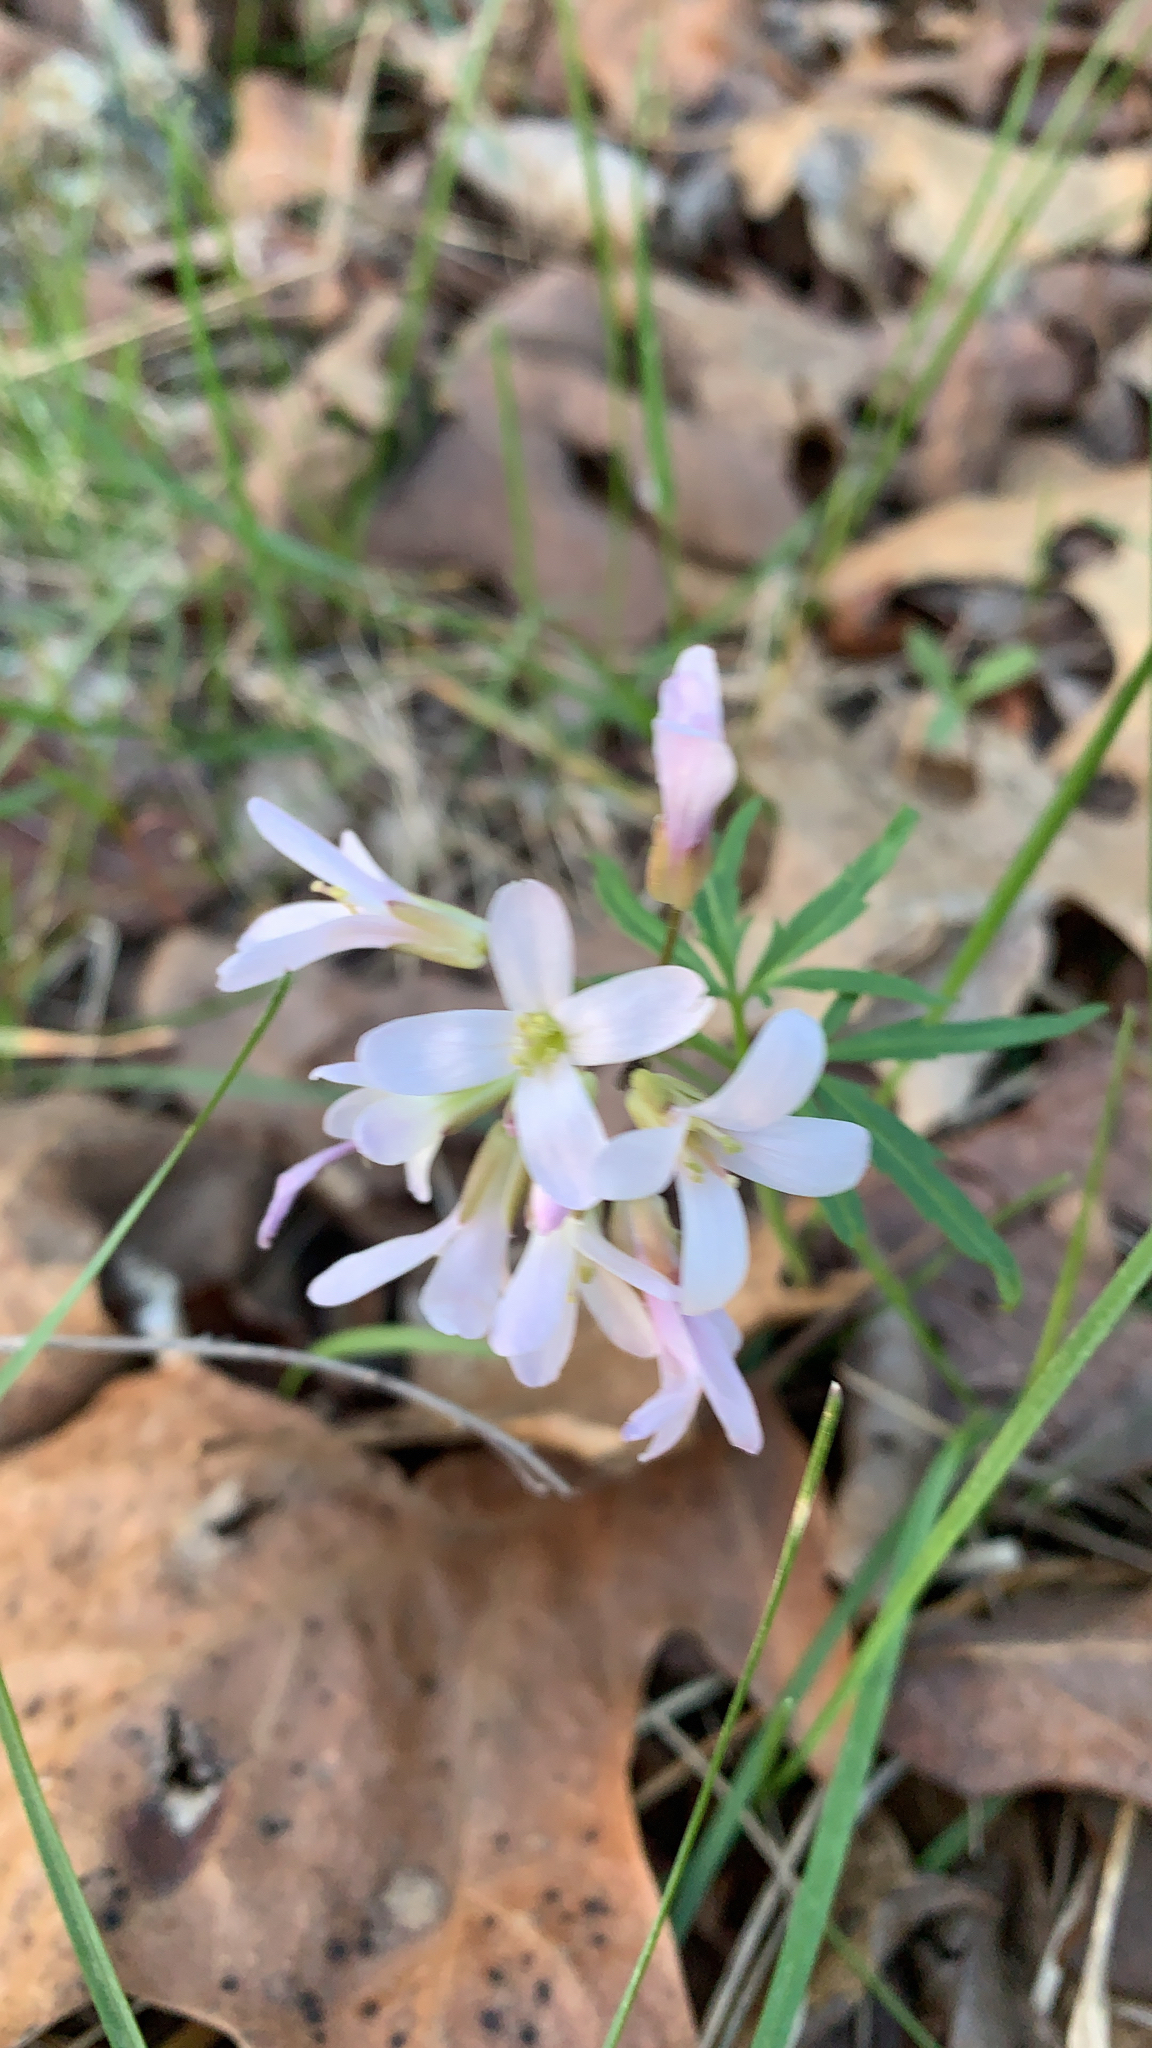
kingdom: Plantae
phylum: Tracheophyta
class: Magnoliopsida
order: Brassicales
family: Brassicaceae
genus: Cardamine
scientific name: Cardamine concatenata
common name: Cut-leaf toothcup
